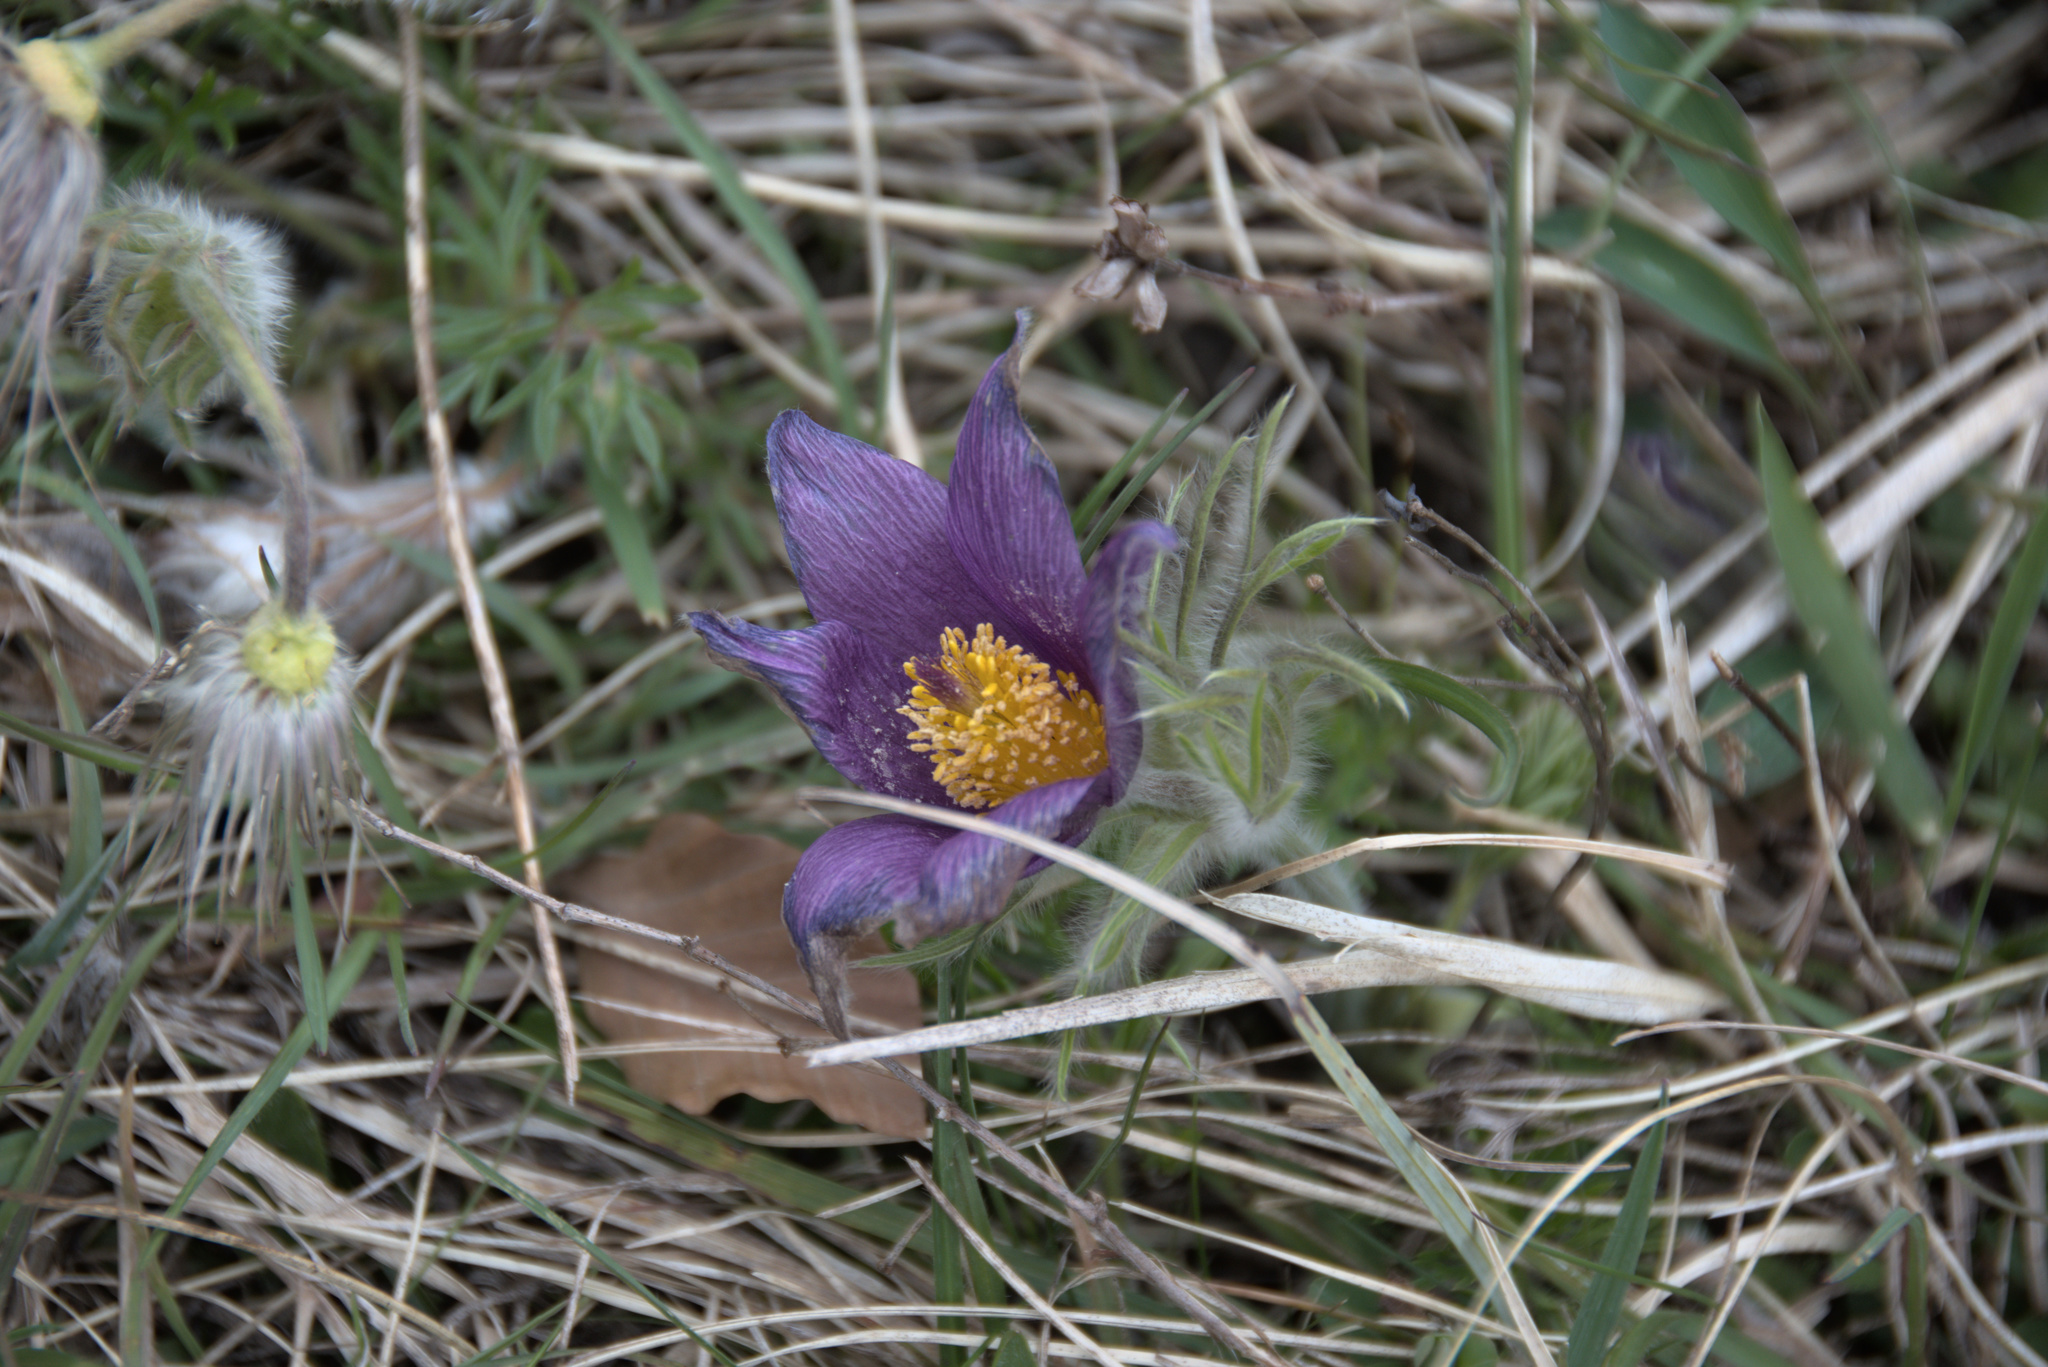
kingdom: Plantae
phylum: Tracheophyta
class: Magnoliopsida
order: Ranunculales
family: Ranunculaceae
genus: Pulsatilla
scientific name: Pulsatilla vulgaris
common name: Pasqueflower
